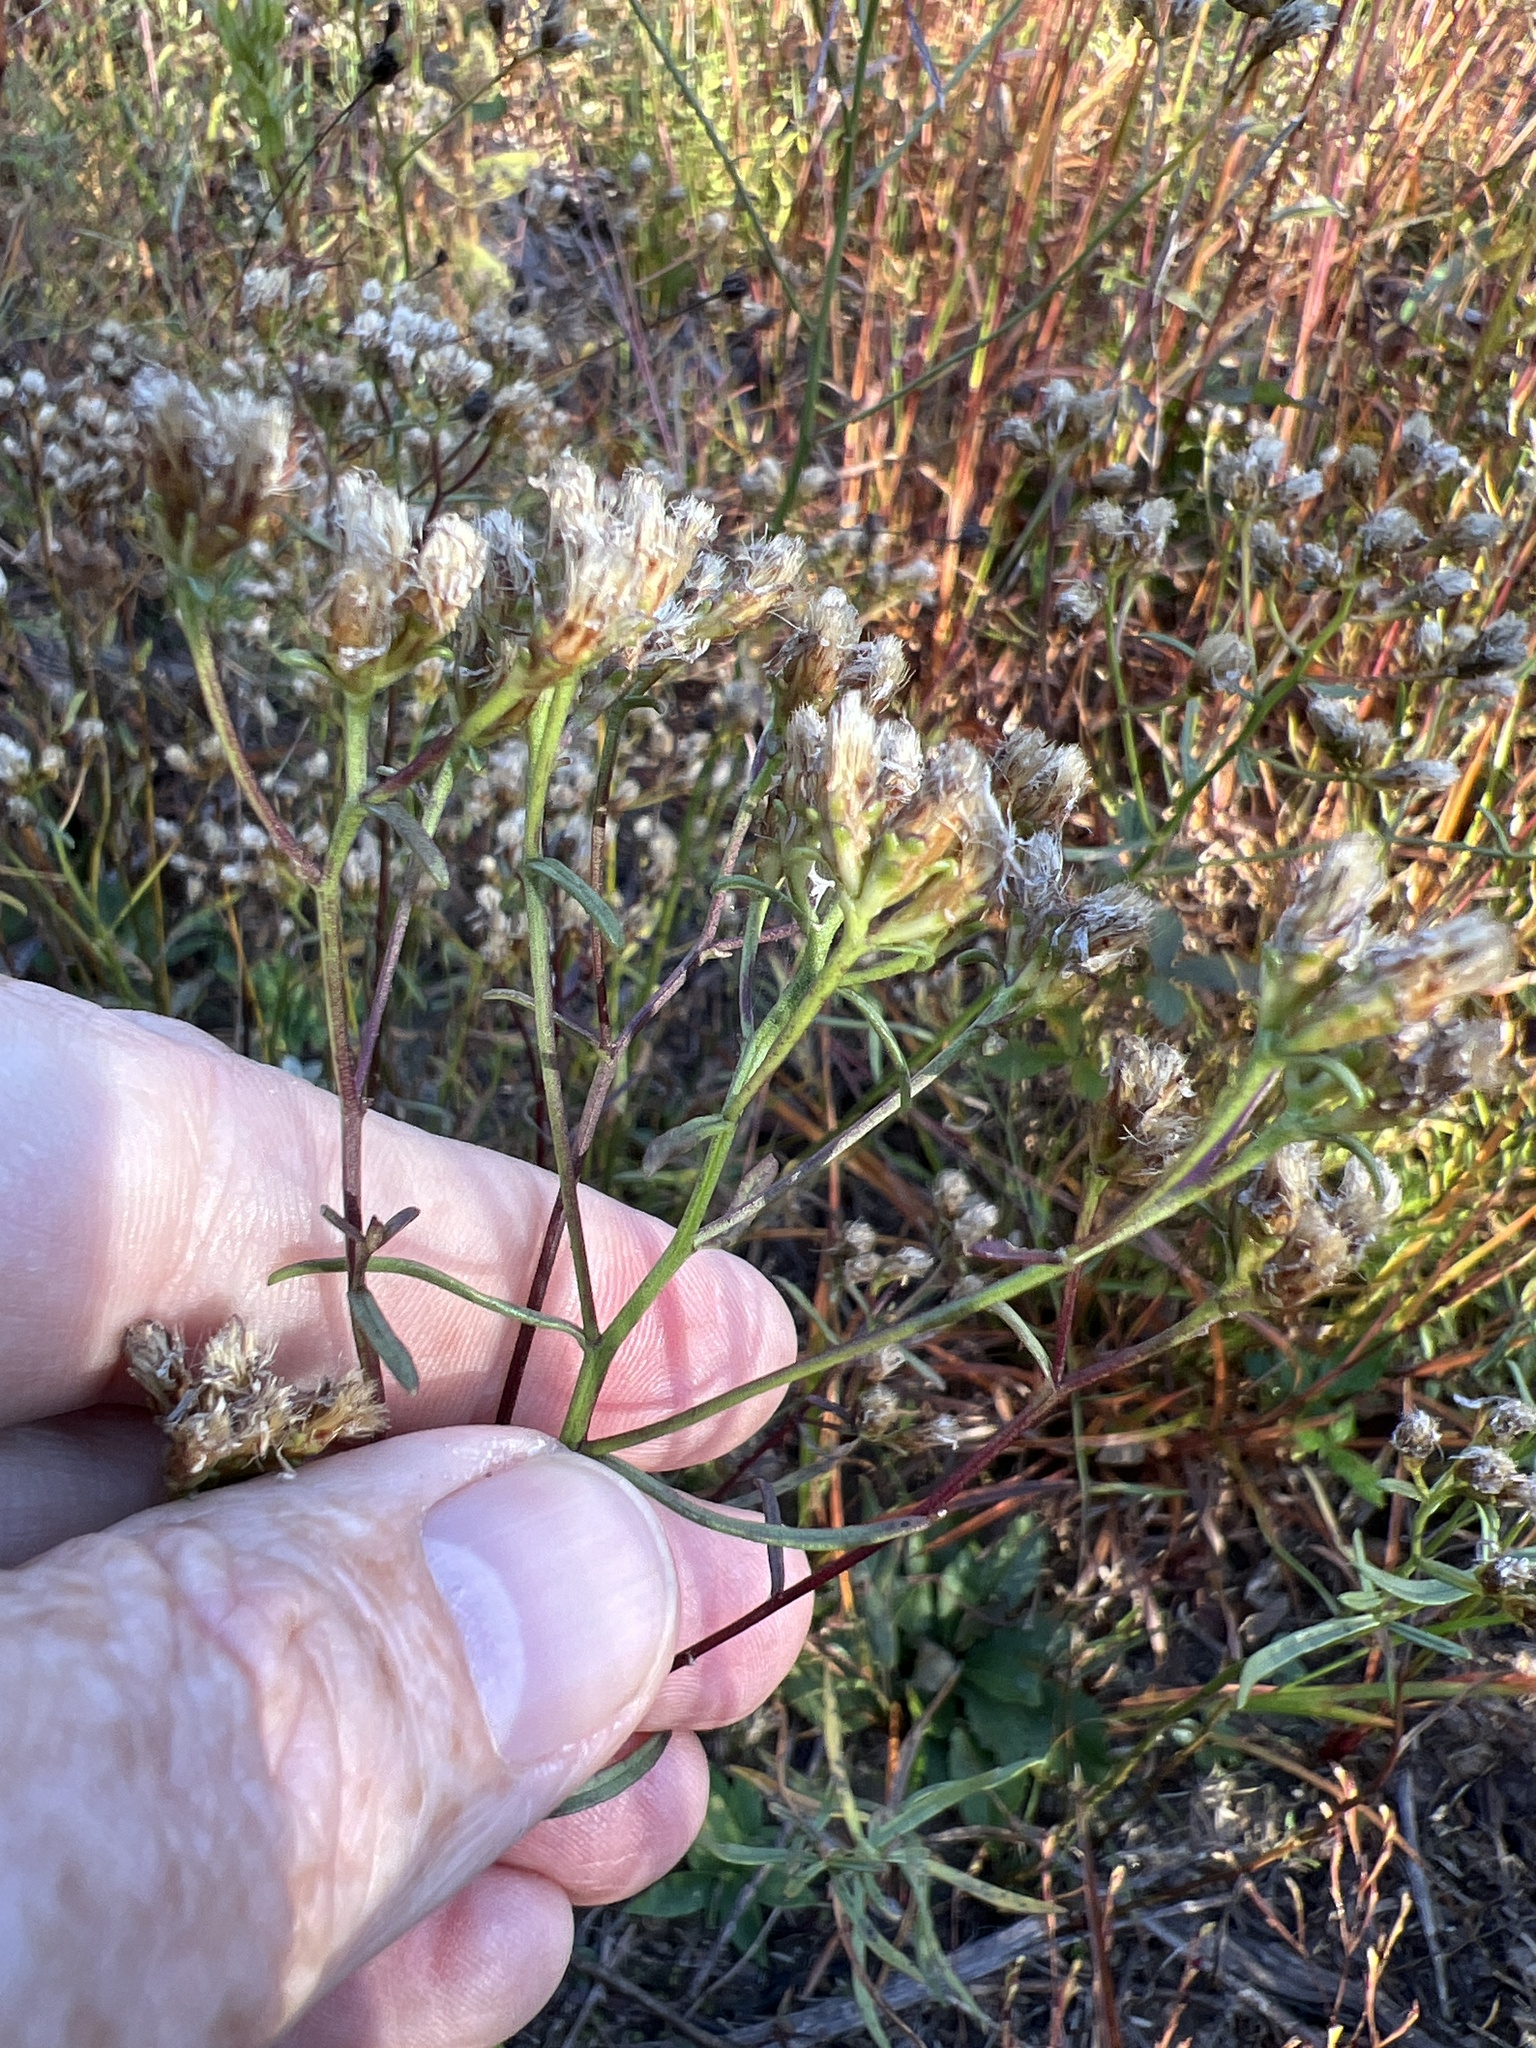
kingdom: Plantae
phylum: Tracheophyta
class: Magnoliopsida
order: Asterales
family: Asteraceae
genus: Sericocarpus
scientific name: Sericocarpus linifolius
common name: Narrow-leaf aster
